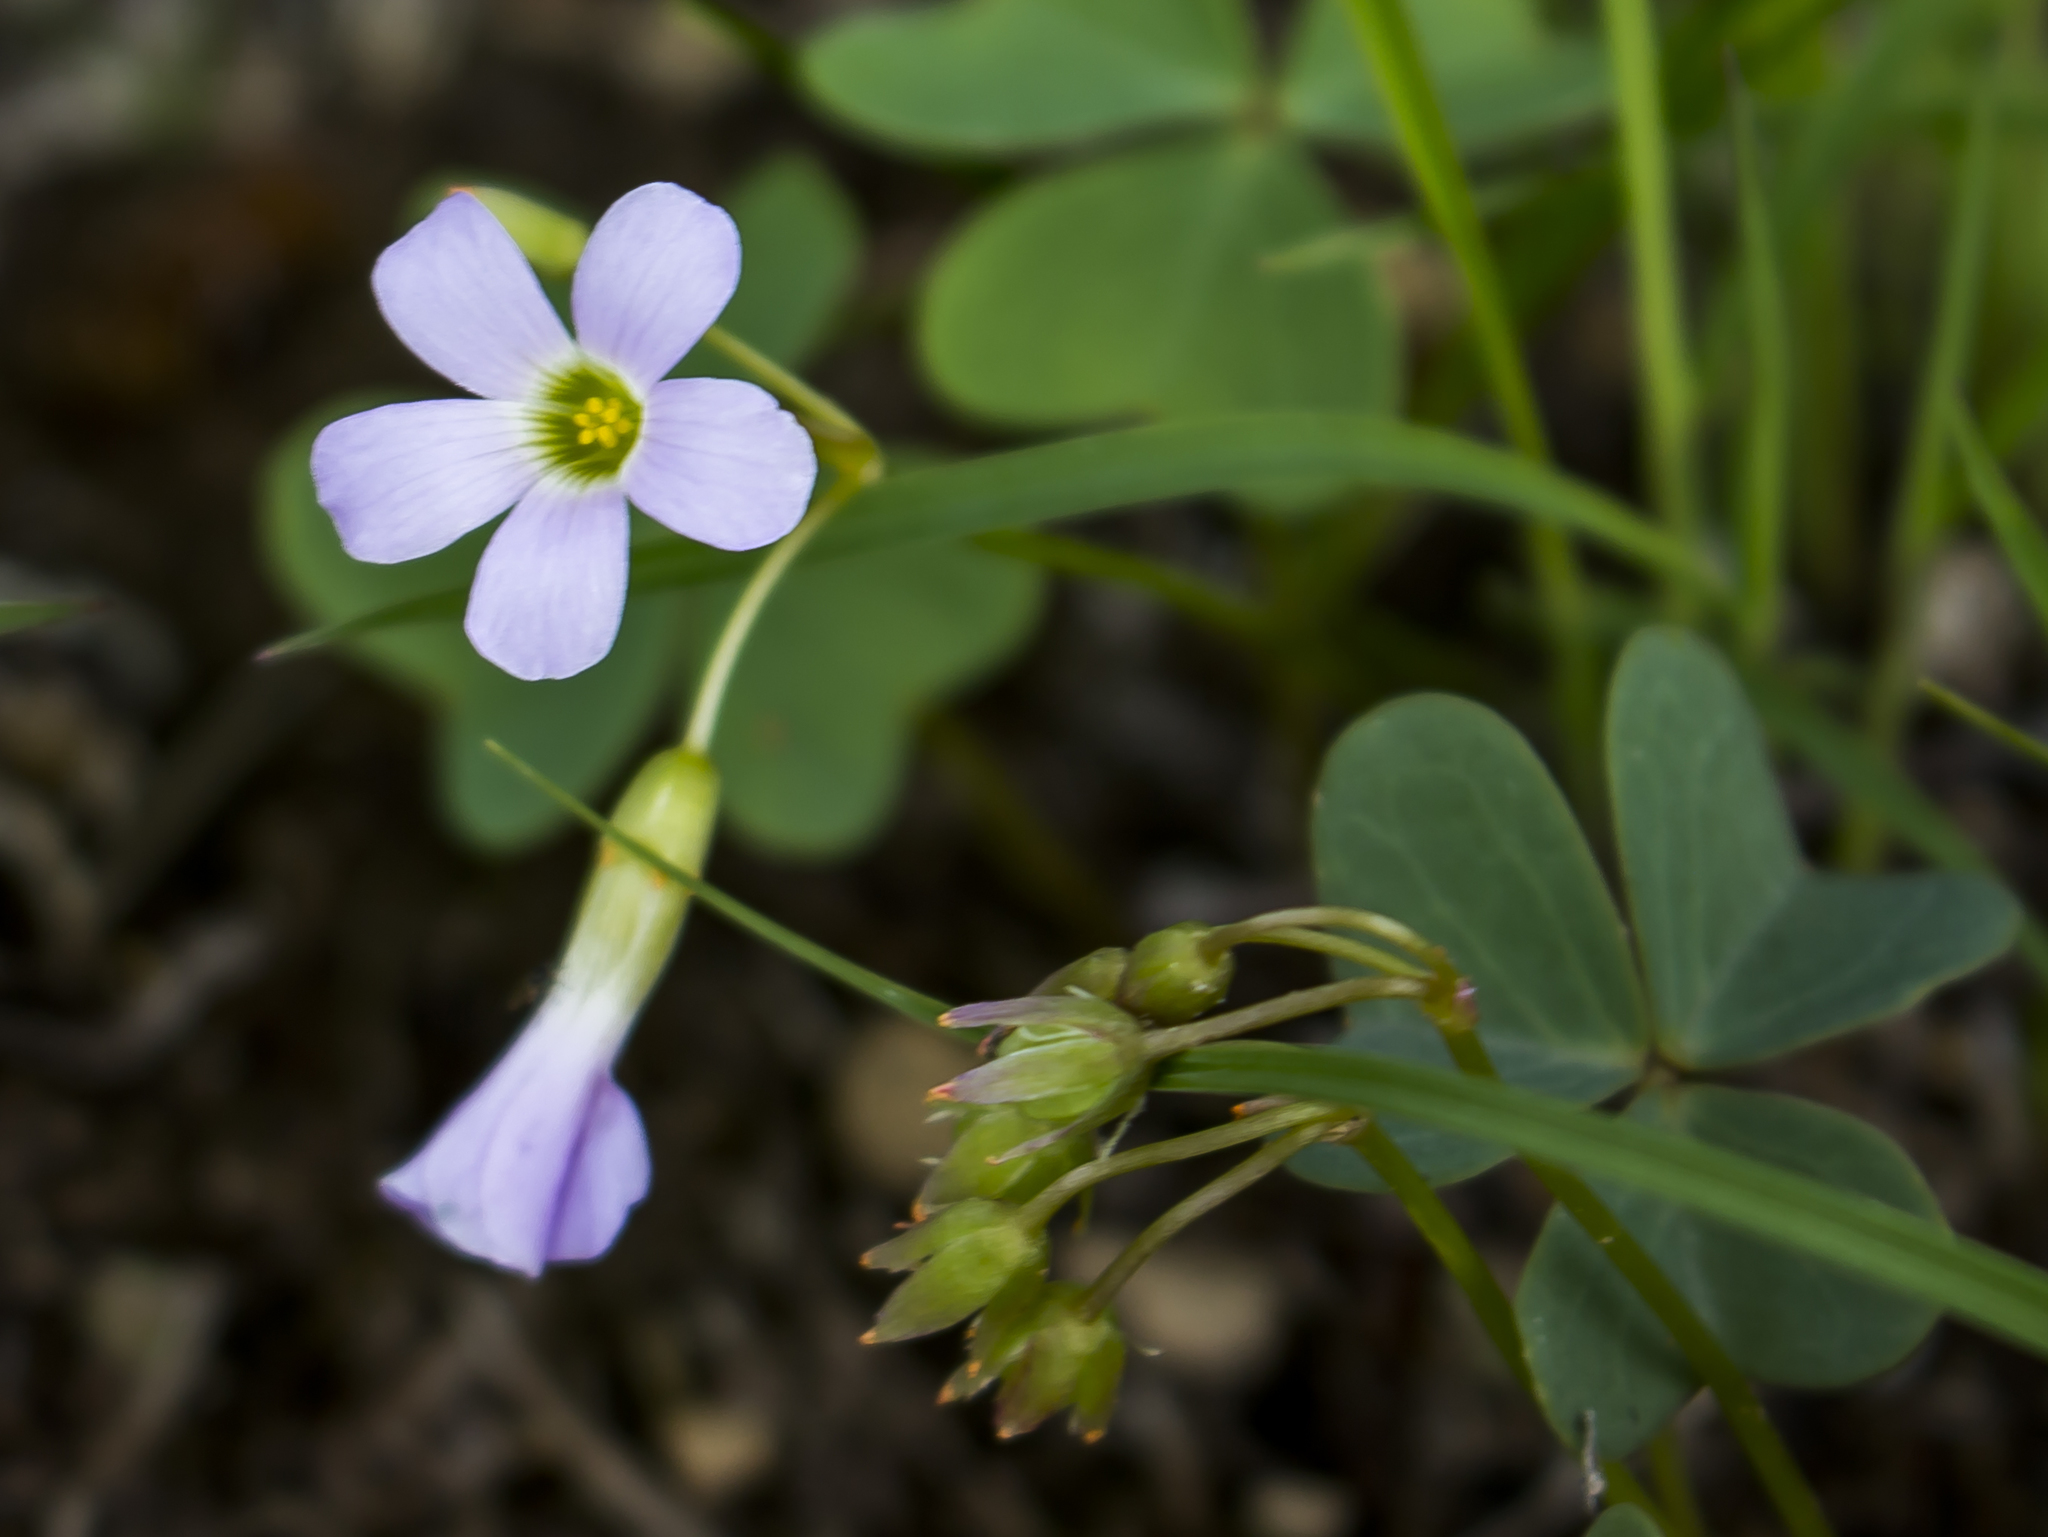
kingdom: Plantae
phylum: Tracheophyta
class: Magnoliopsida
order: Oxalidales
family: Oxalidaceae
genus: Oxalis
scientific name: Oxalis violacea
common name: Violet wood-sorrel
